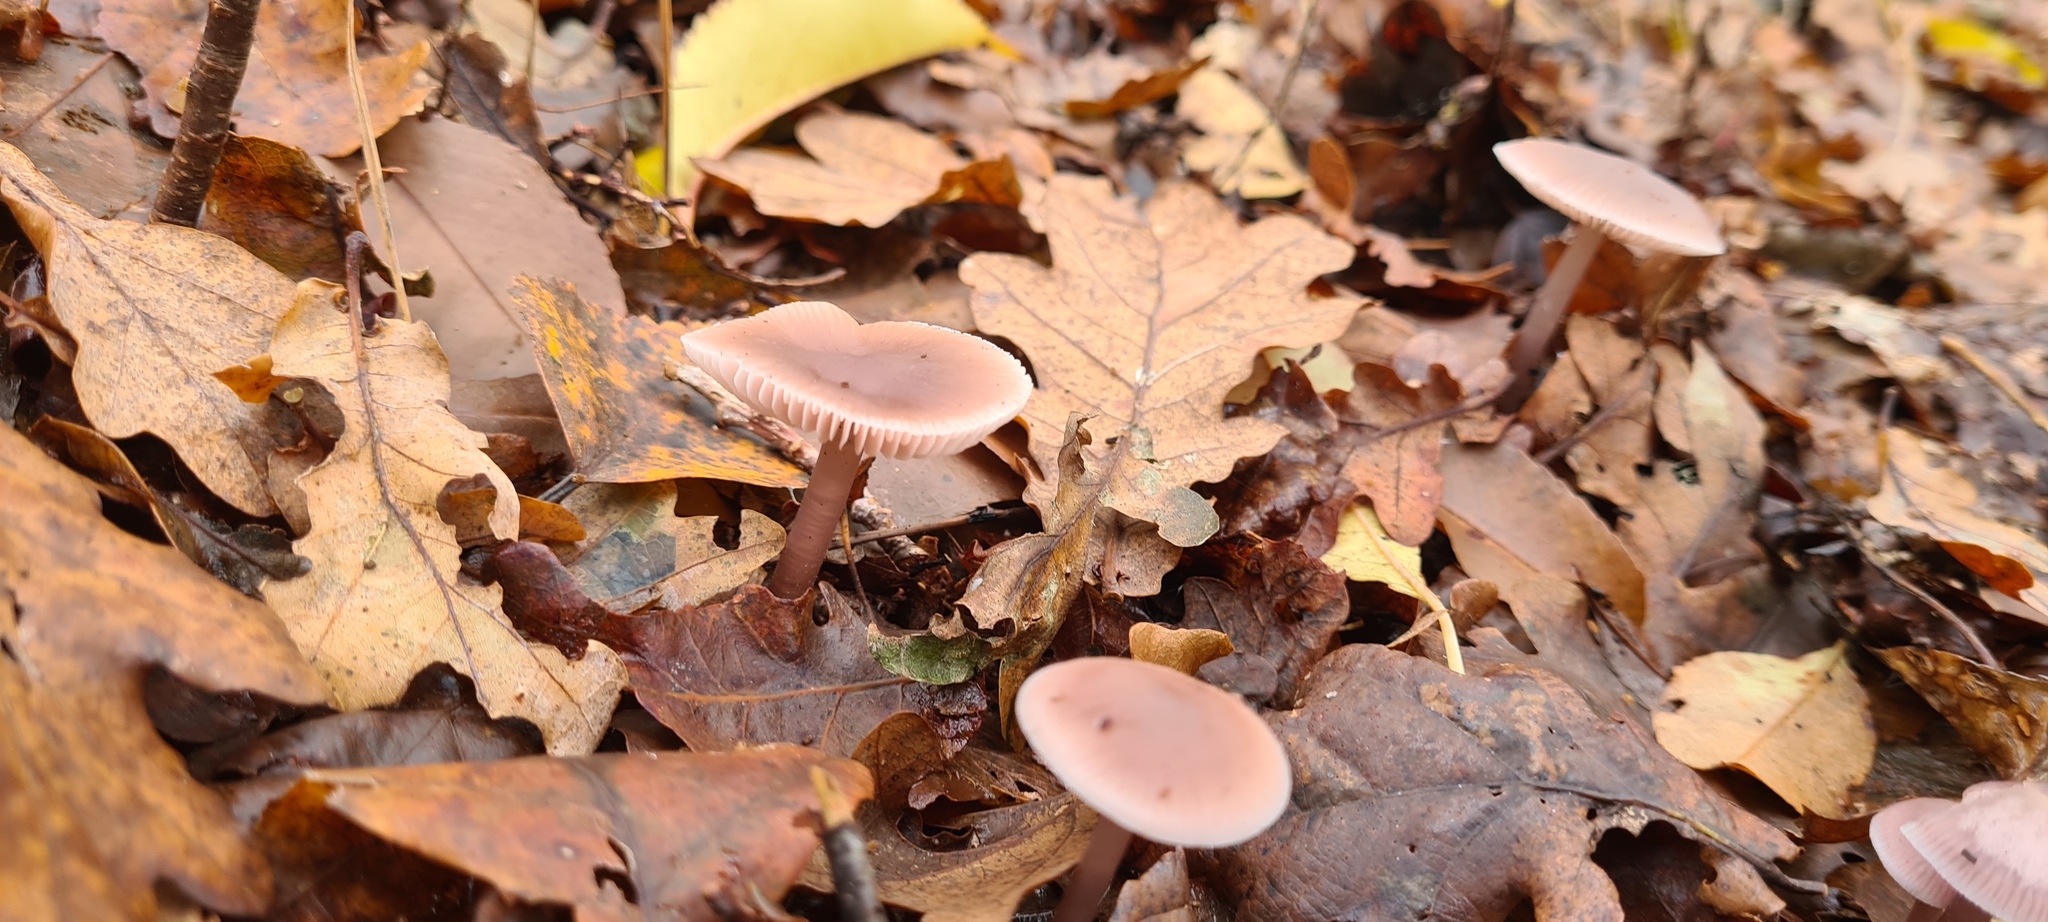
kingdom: Fungi
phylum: Basidiomycota
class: Agaricomycetes
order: Agaricales
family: Mycenaceae
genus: Mycena
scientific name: Mycena pura
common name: Lilac bonnet
